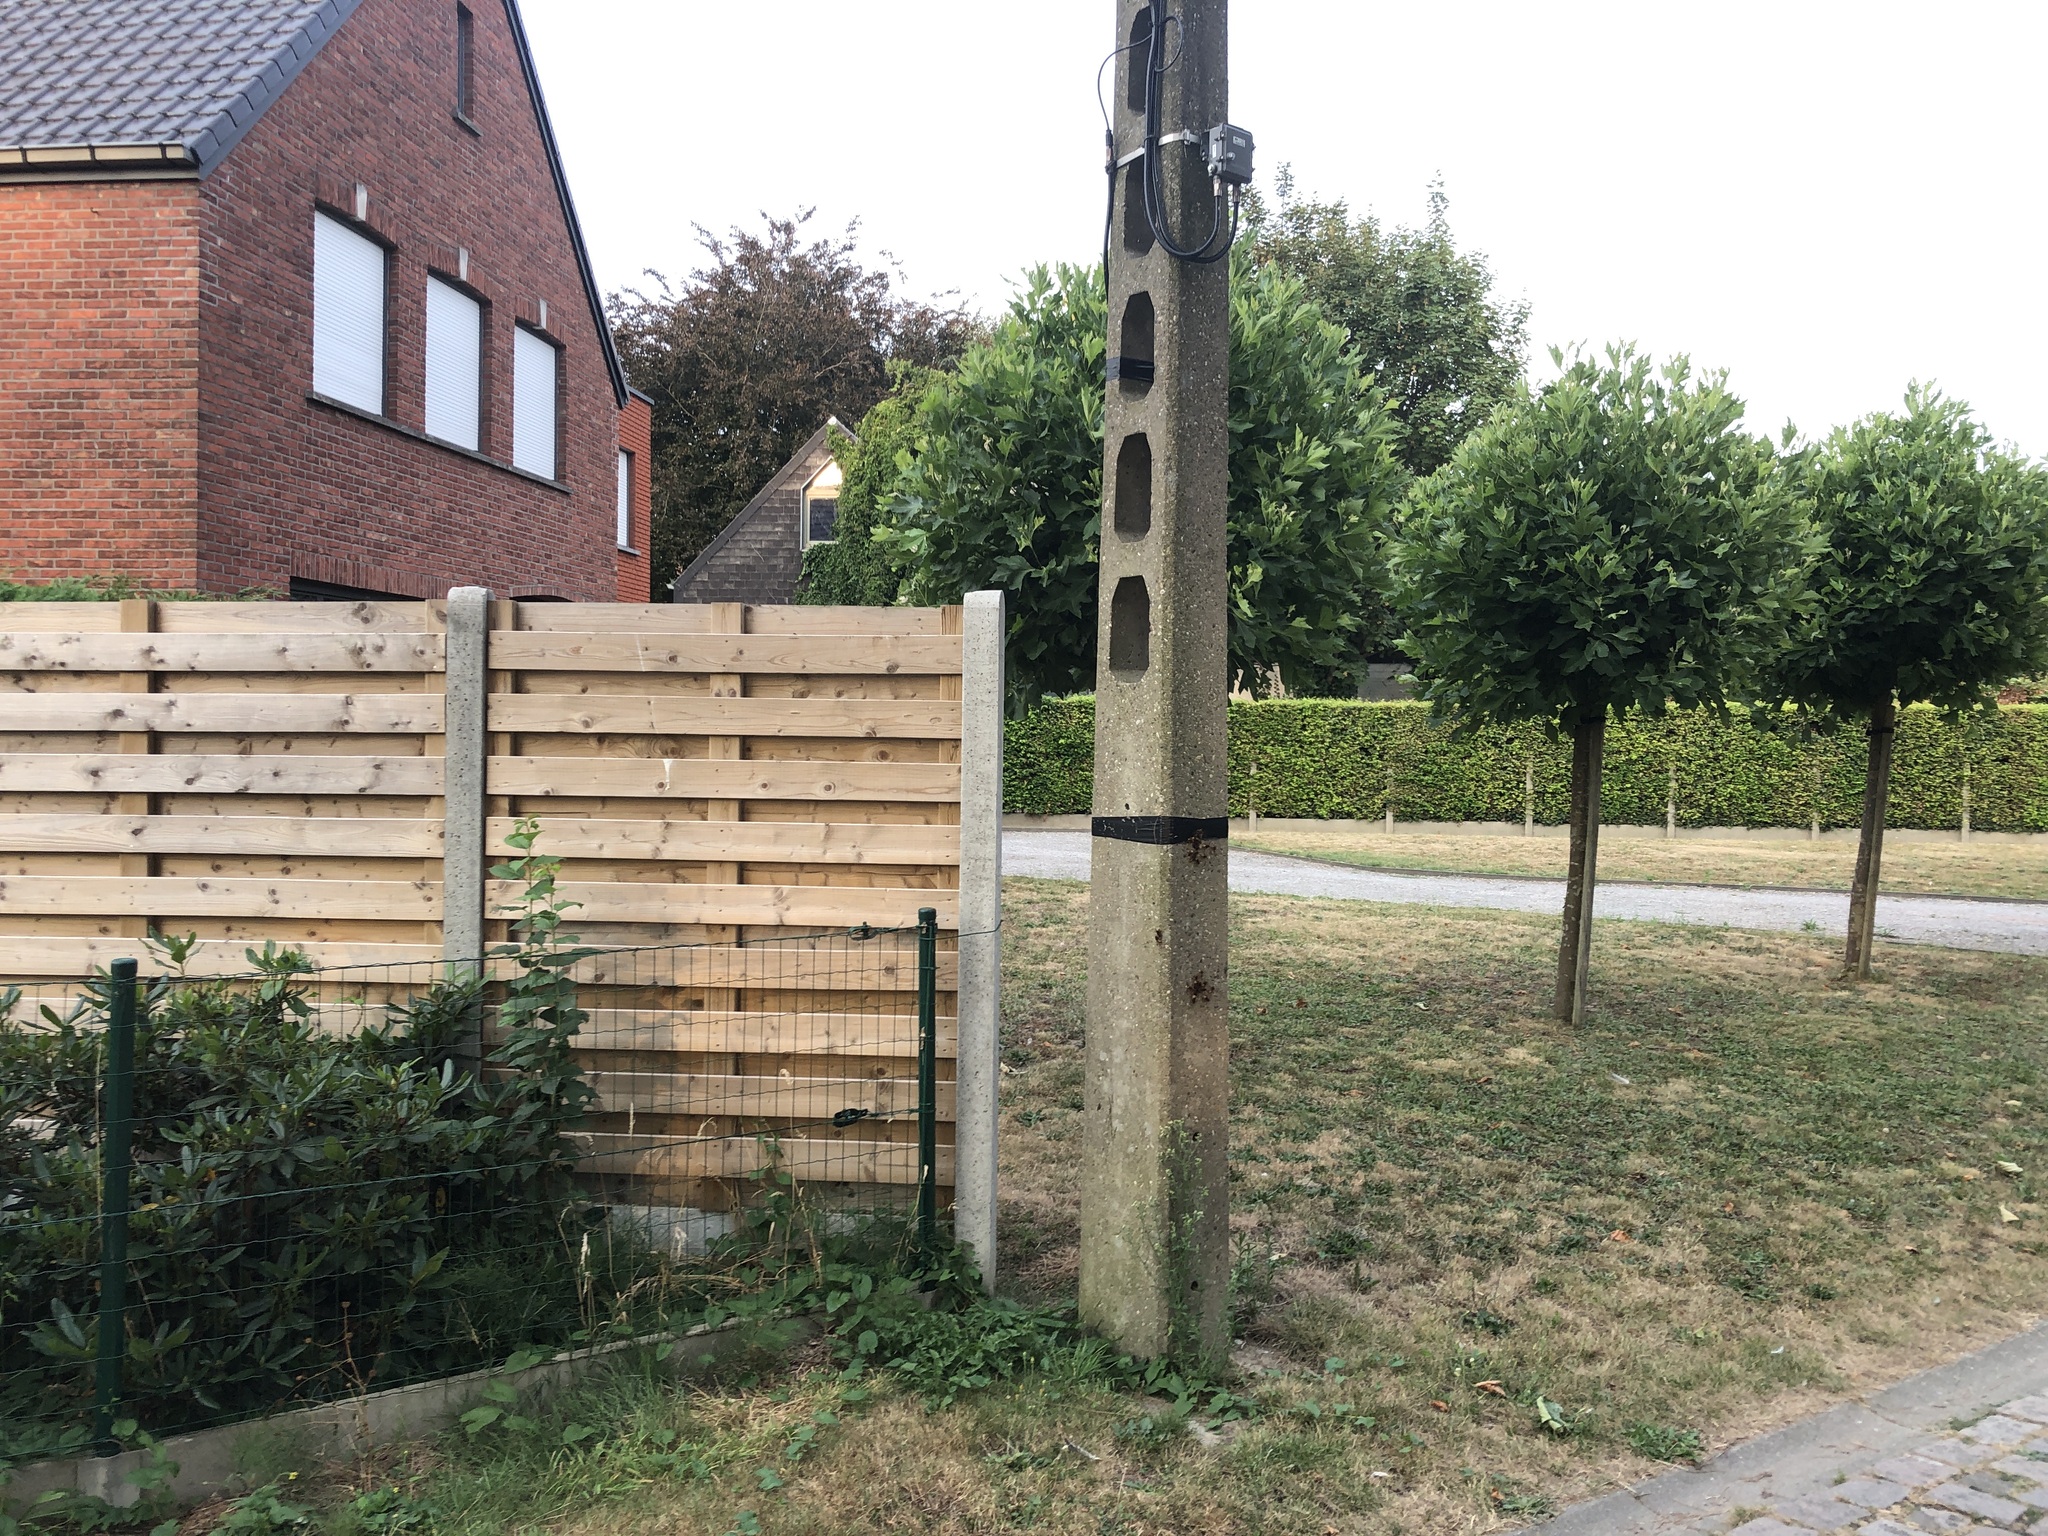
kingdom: Animalia
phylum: Arthropoda
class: Insecta
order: Hymenoptera
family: Vespidae
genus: Vespa
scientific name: Vespa crabro
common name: Hornet
